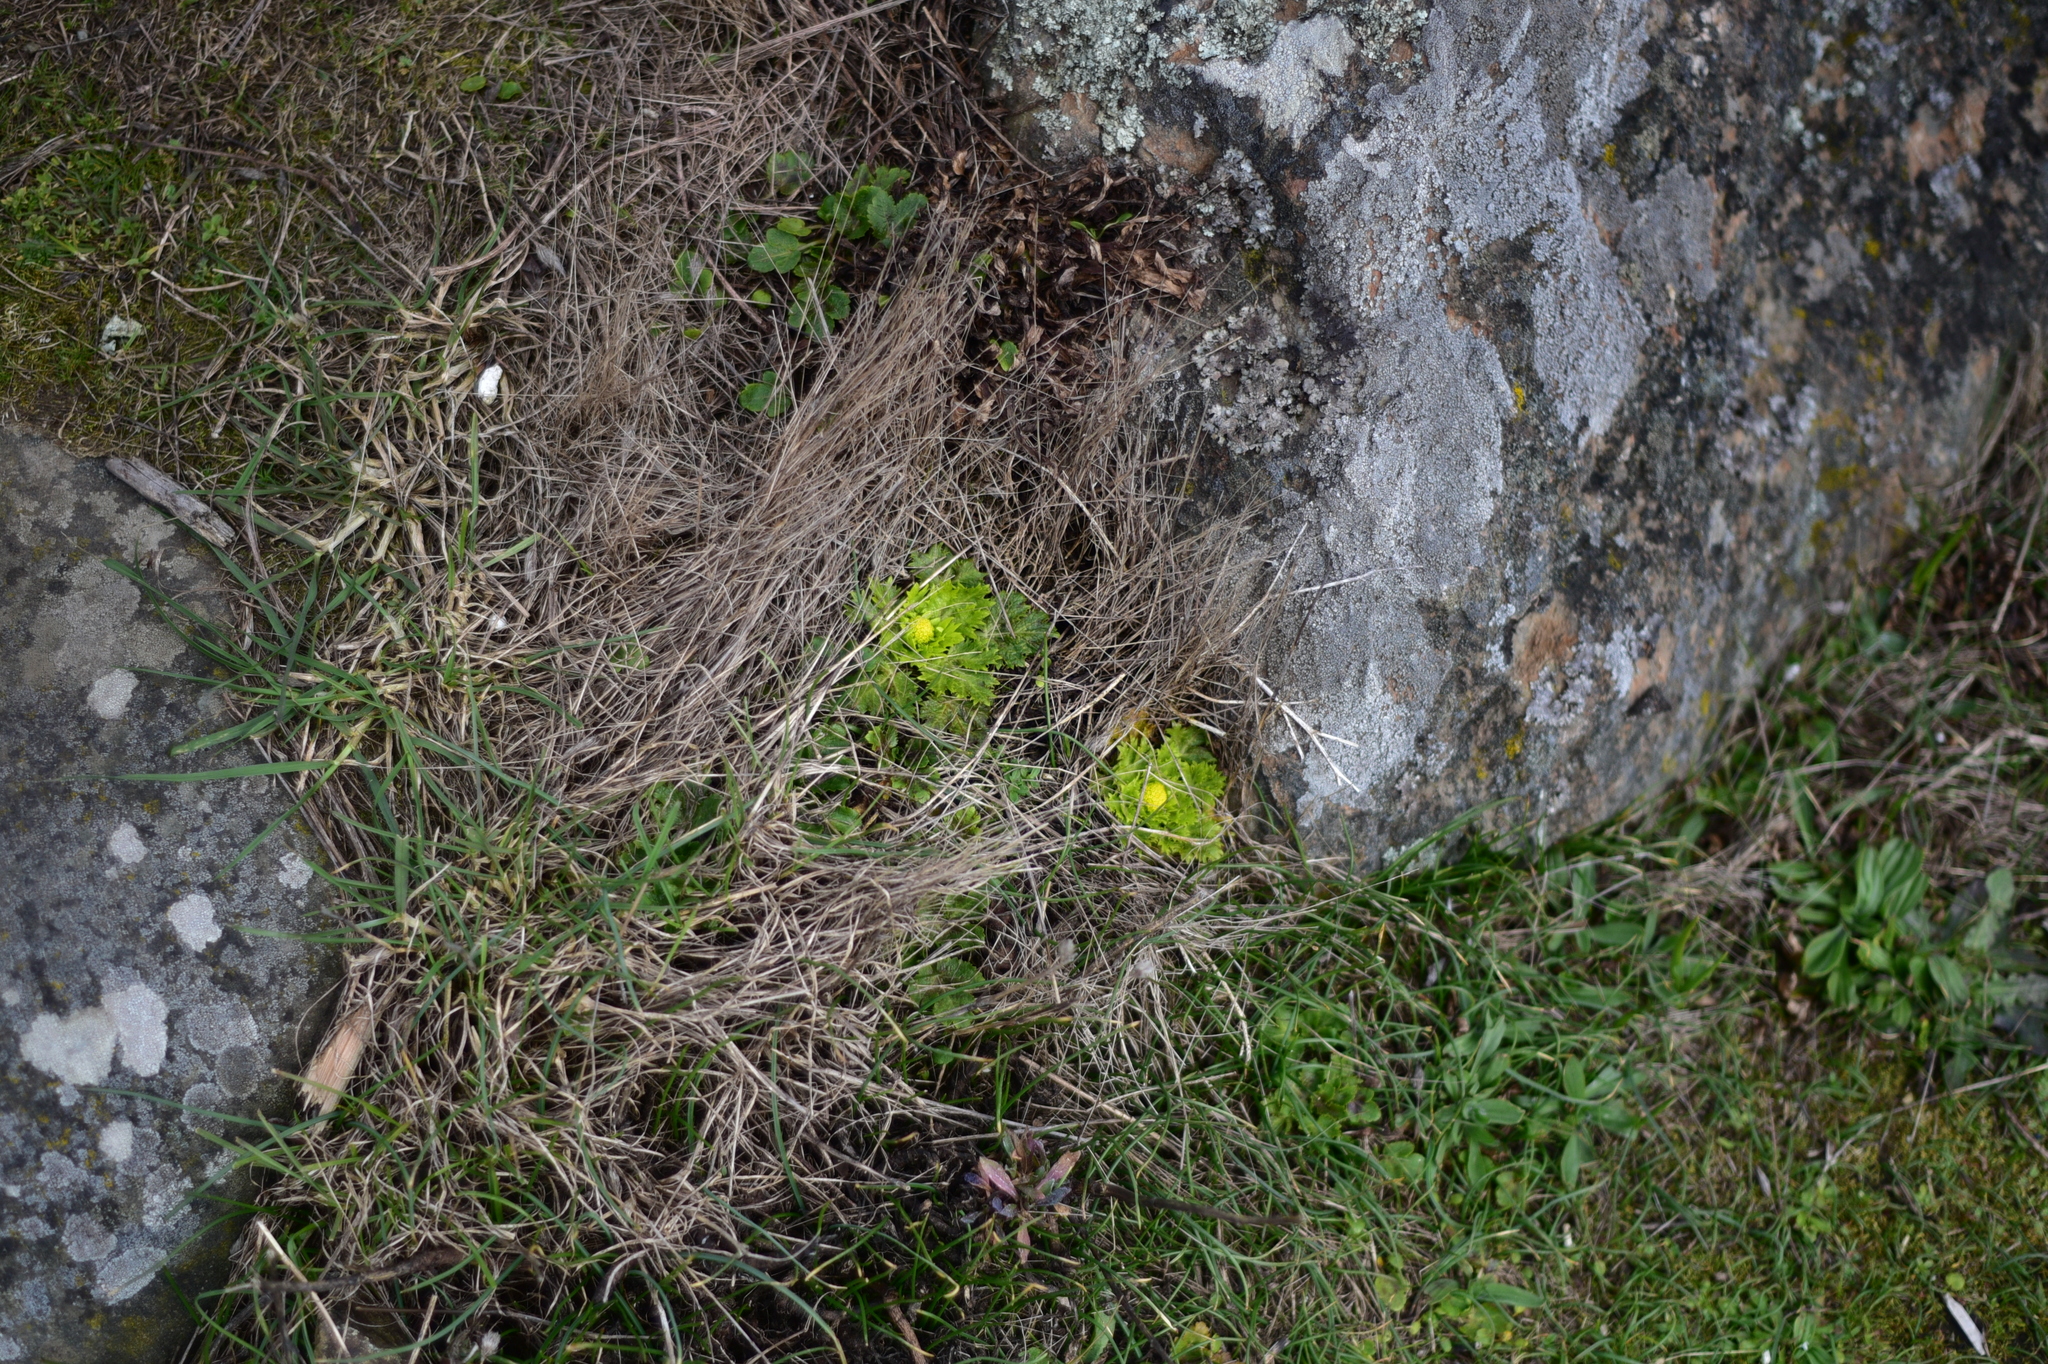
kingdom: Plantae
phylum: Tracheophyta
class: Magnoliopsida
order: Apiales
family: Apiaceae
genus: Sanicula
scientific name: Sanicula arctopoides
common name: Footsteps-of-spring
